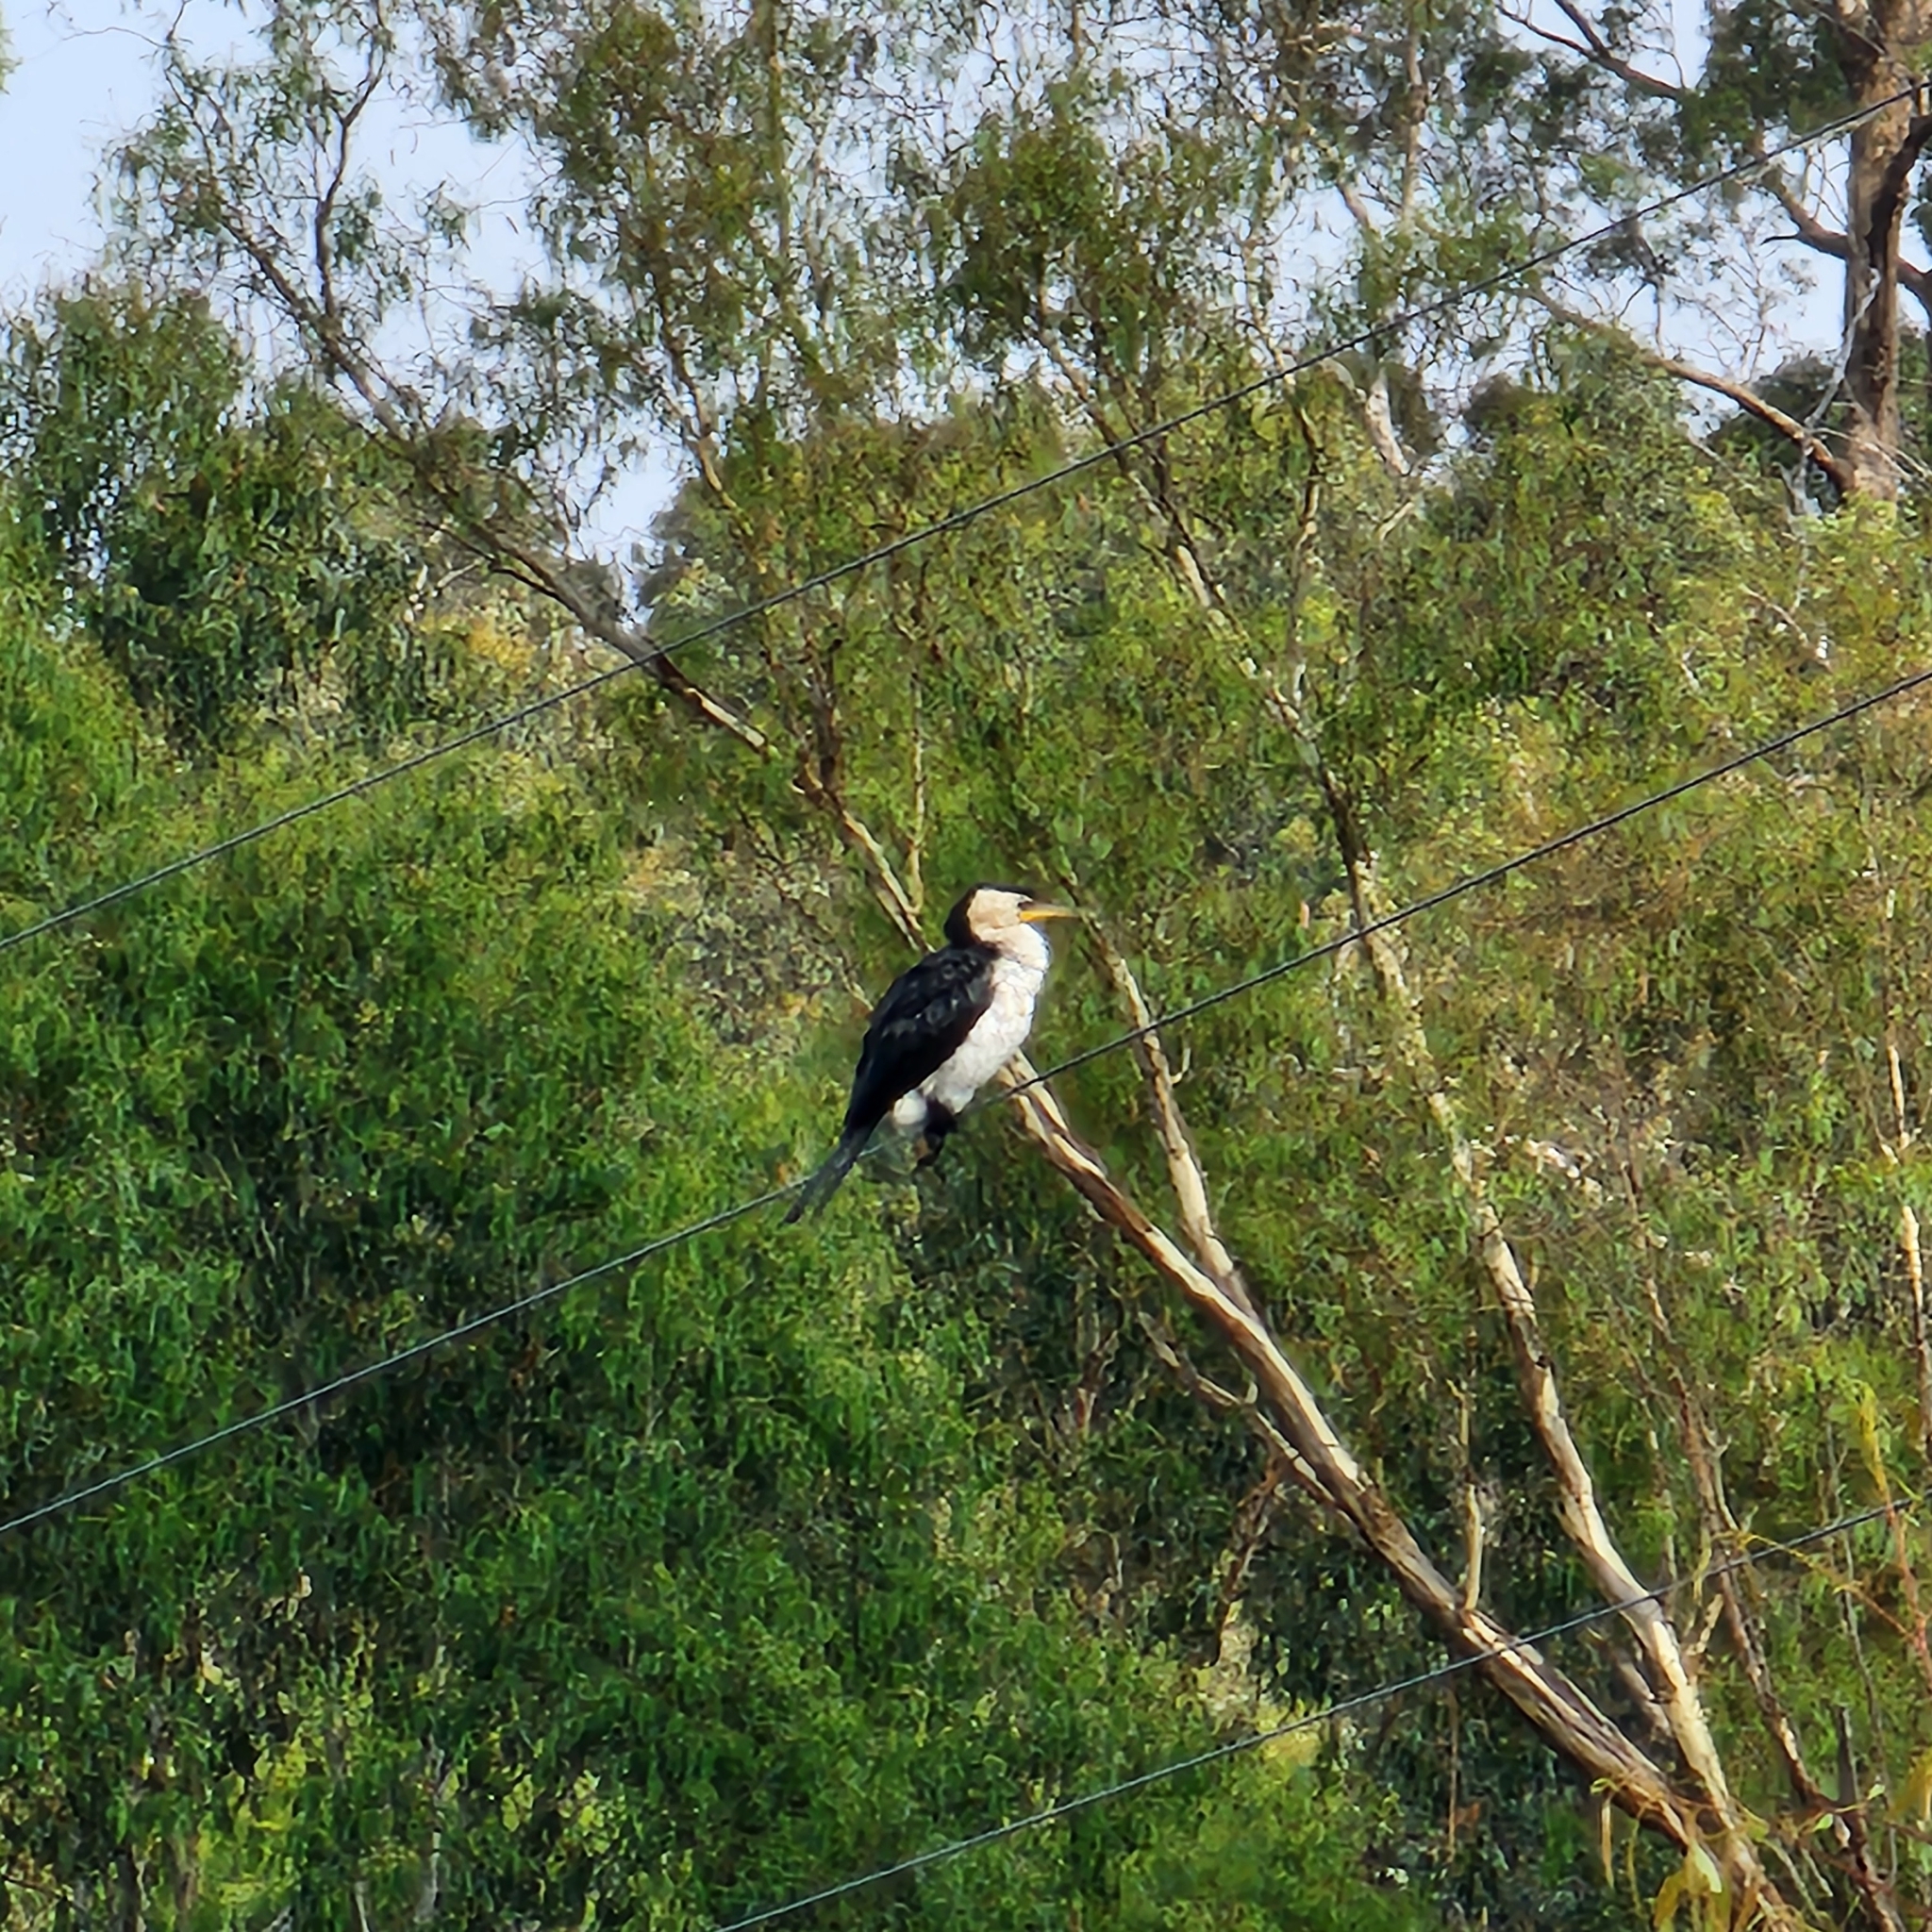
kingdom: Animalia
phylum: Chordata
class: Aves
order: Suliformes
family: Phalacrocoracidae
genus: Microcarbo
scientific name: Microcarbo melanoleucos
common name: Little pied cormorant
